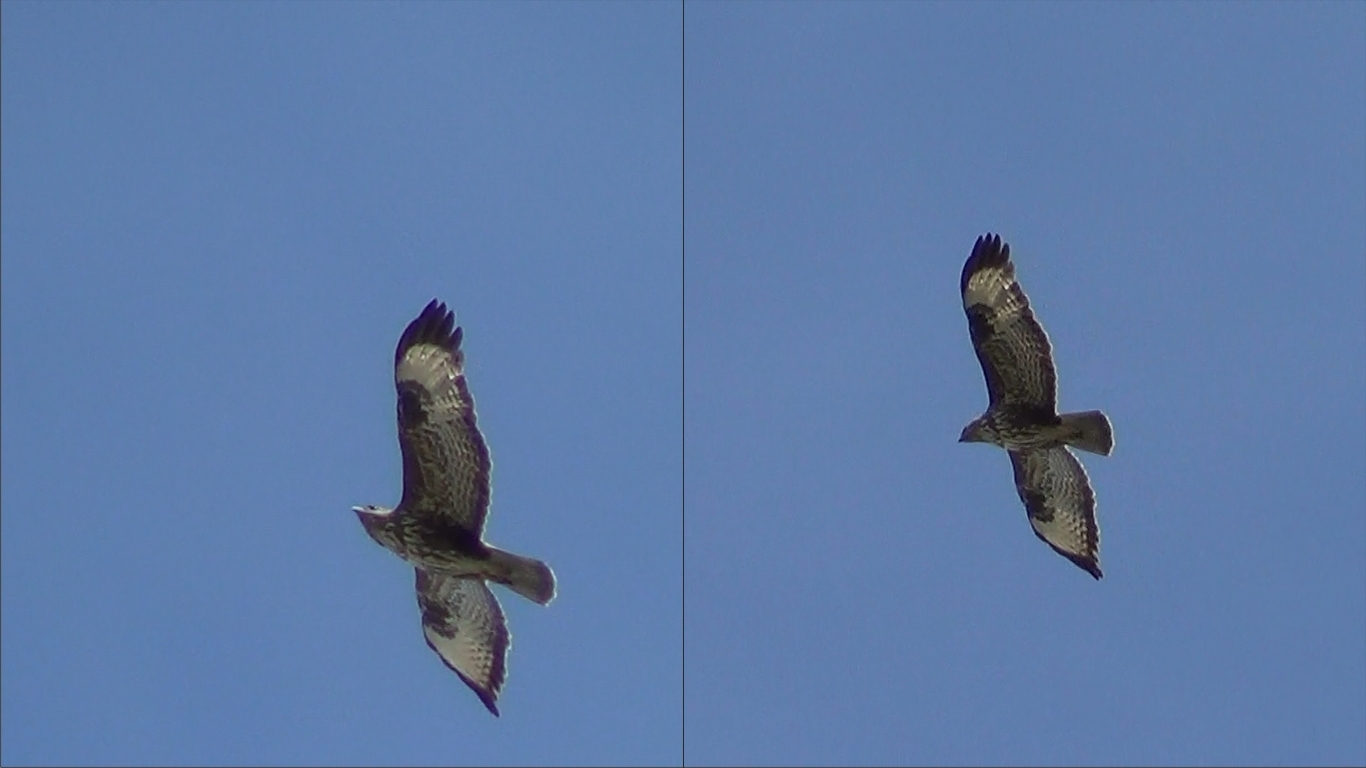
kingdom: Animalia
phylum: Chordata
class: Aves
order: Accipitriformes
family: Accipitridae
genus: Buteo
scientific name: Buteo buteo
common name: Common buzzard
